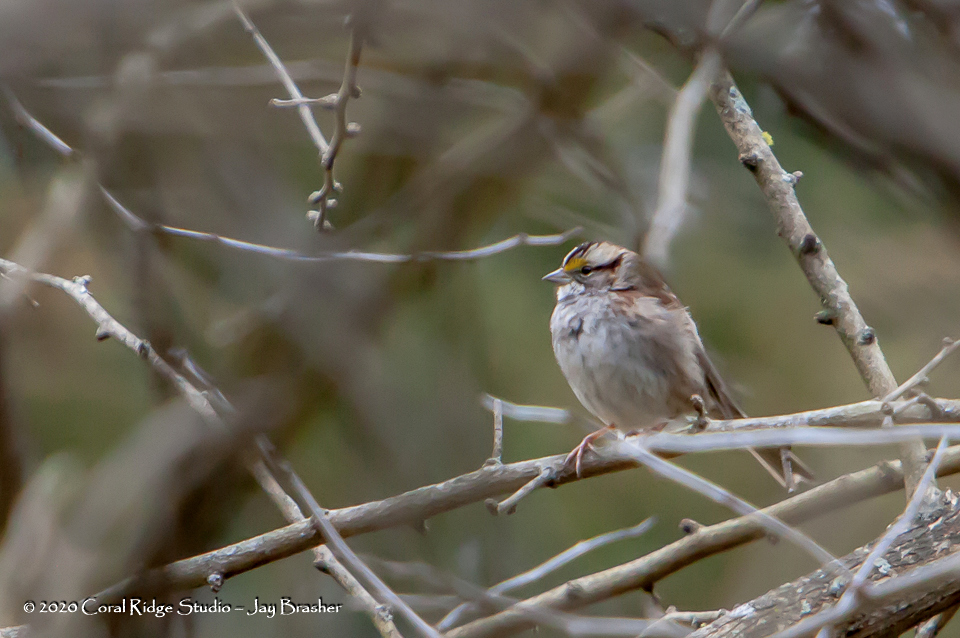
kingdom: Animalia
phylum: Chordata
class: Aves
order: Passeriformes
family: Passerellidae
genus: Zonotrichia
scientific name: Zonotrichia albicollis
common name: White-throated sparrow
